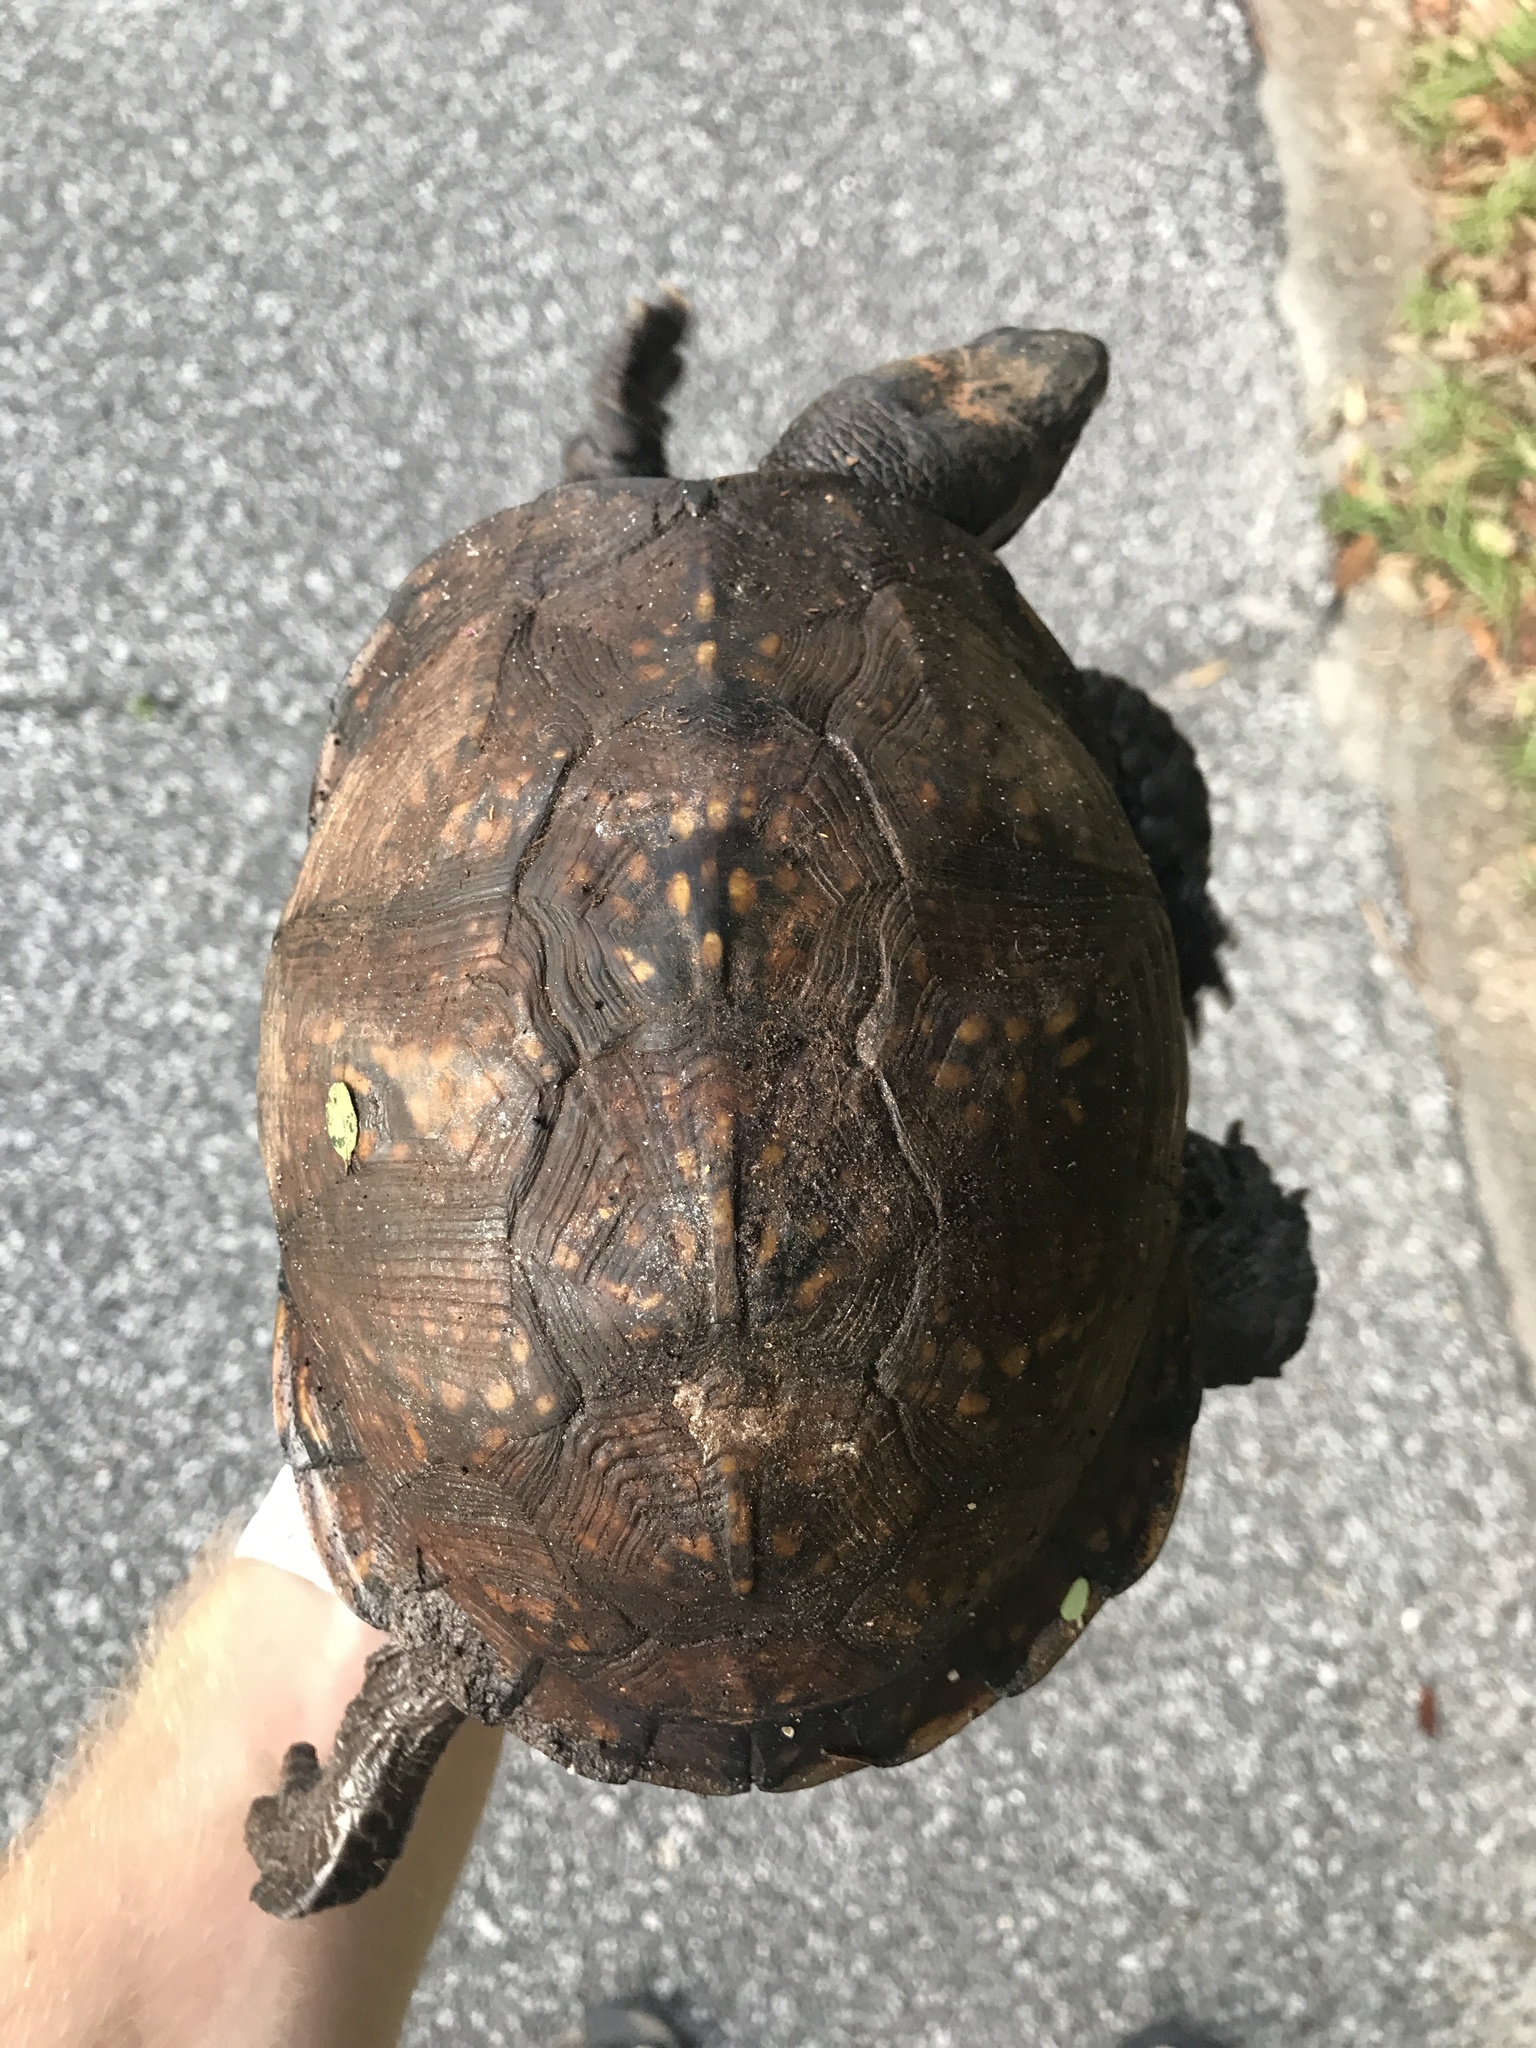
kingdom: Animalia
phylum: Chordata
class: Testudines
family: Emydidae
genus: Terrapene
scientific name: Terrapene carolina
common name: Common box turtle
